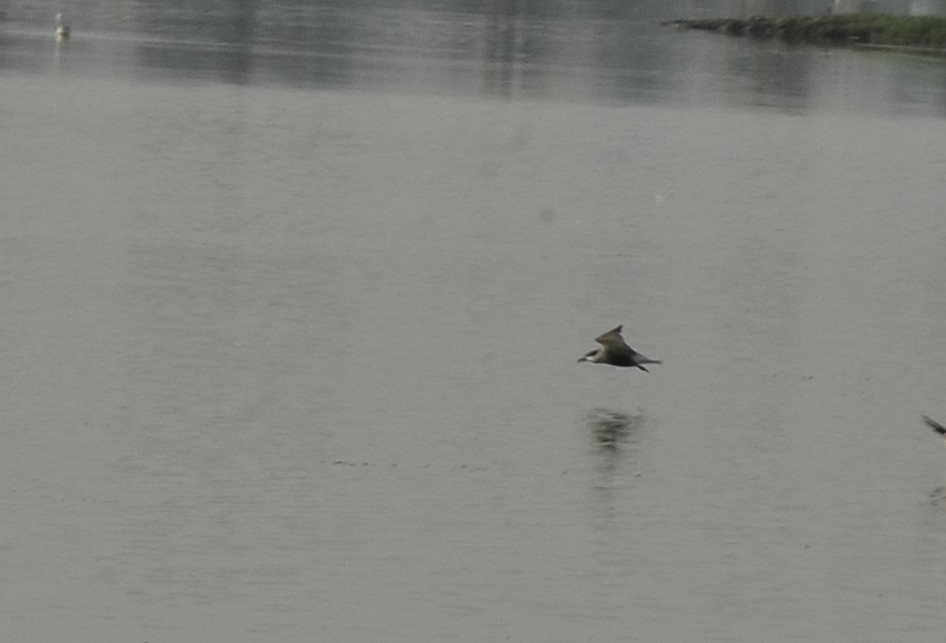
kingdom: Animalia
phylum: Chordata
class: Aves
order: Charadriiformes
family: Laridae
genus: Chlidonias
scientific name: Chlidonias hybrida
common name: Whiskered tern
